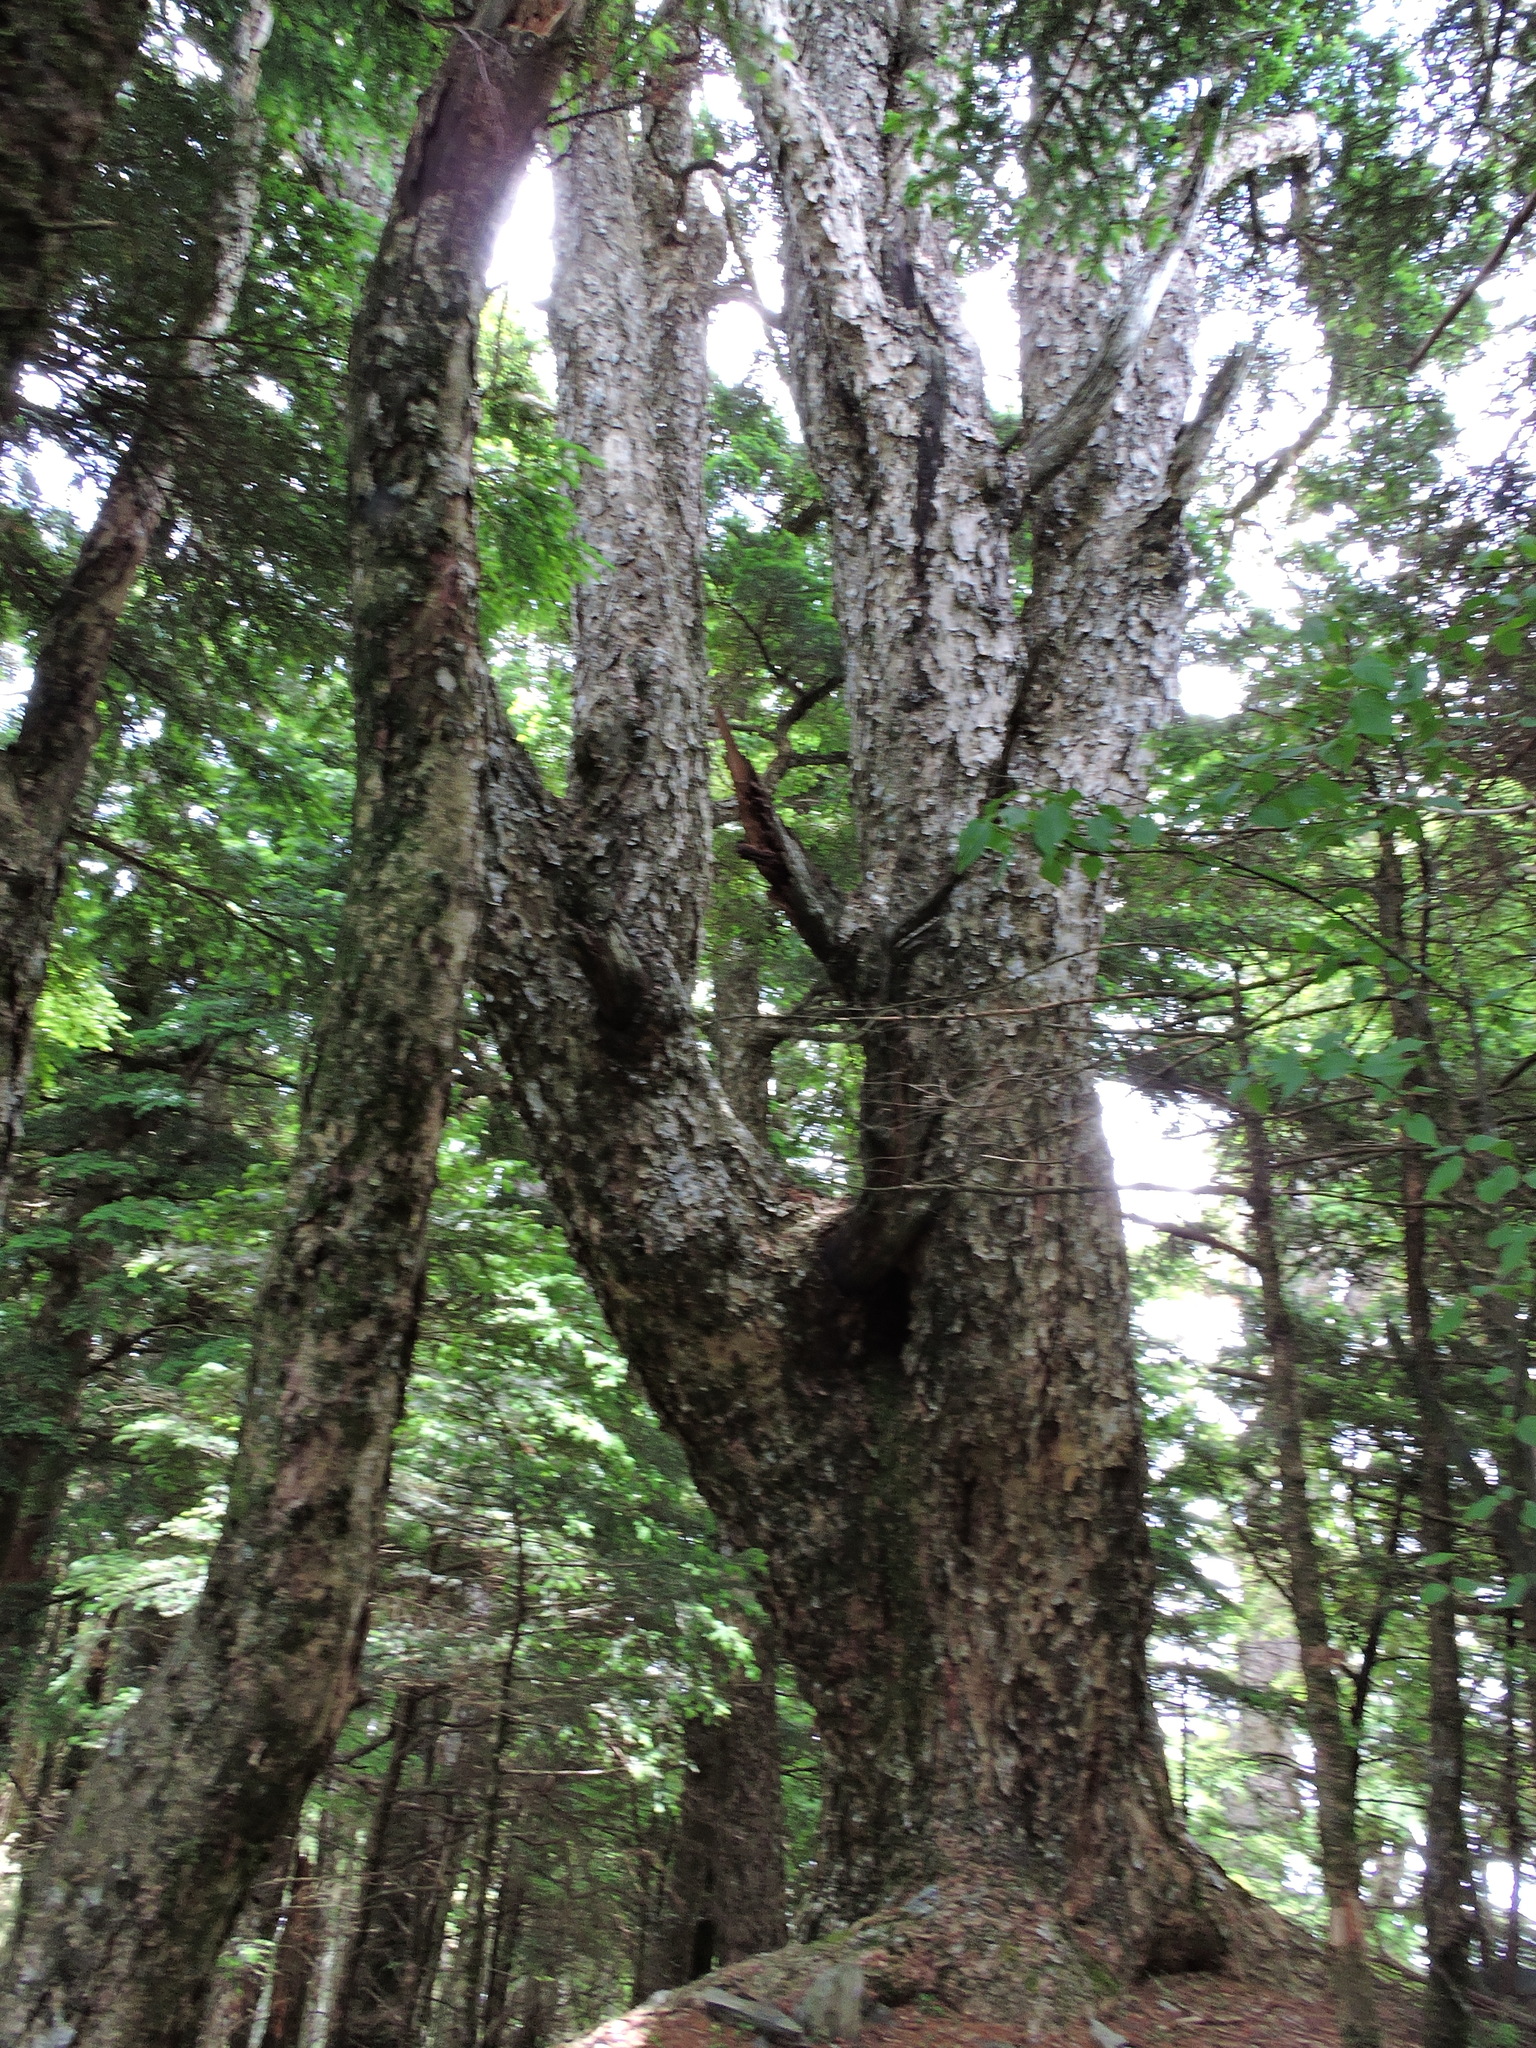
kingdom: Plantae
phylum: Tracheophyta
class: Pinopsida
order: Pinales
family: Pinaceae
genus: Tsuga
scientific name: Tsuga chinensis
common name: Chinese hemlock
